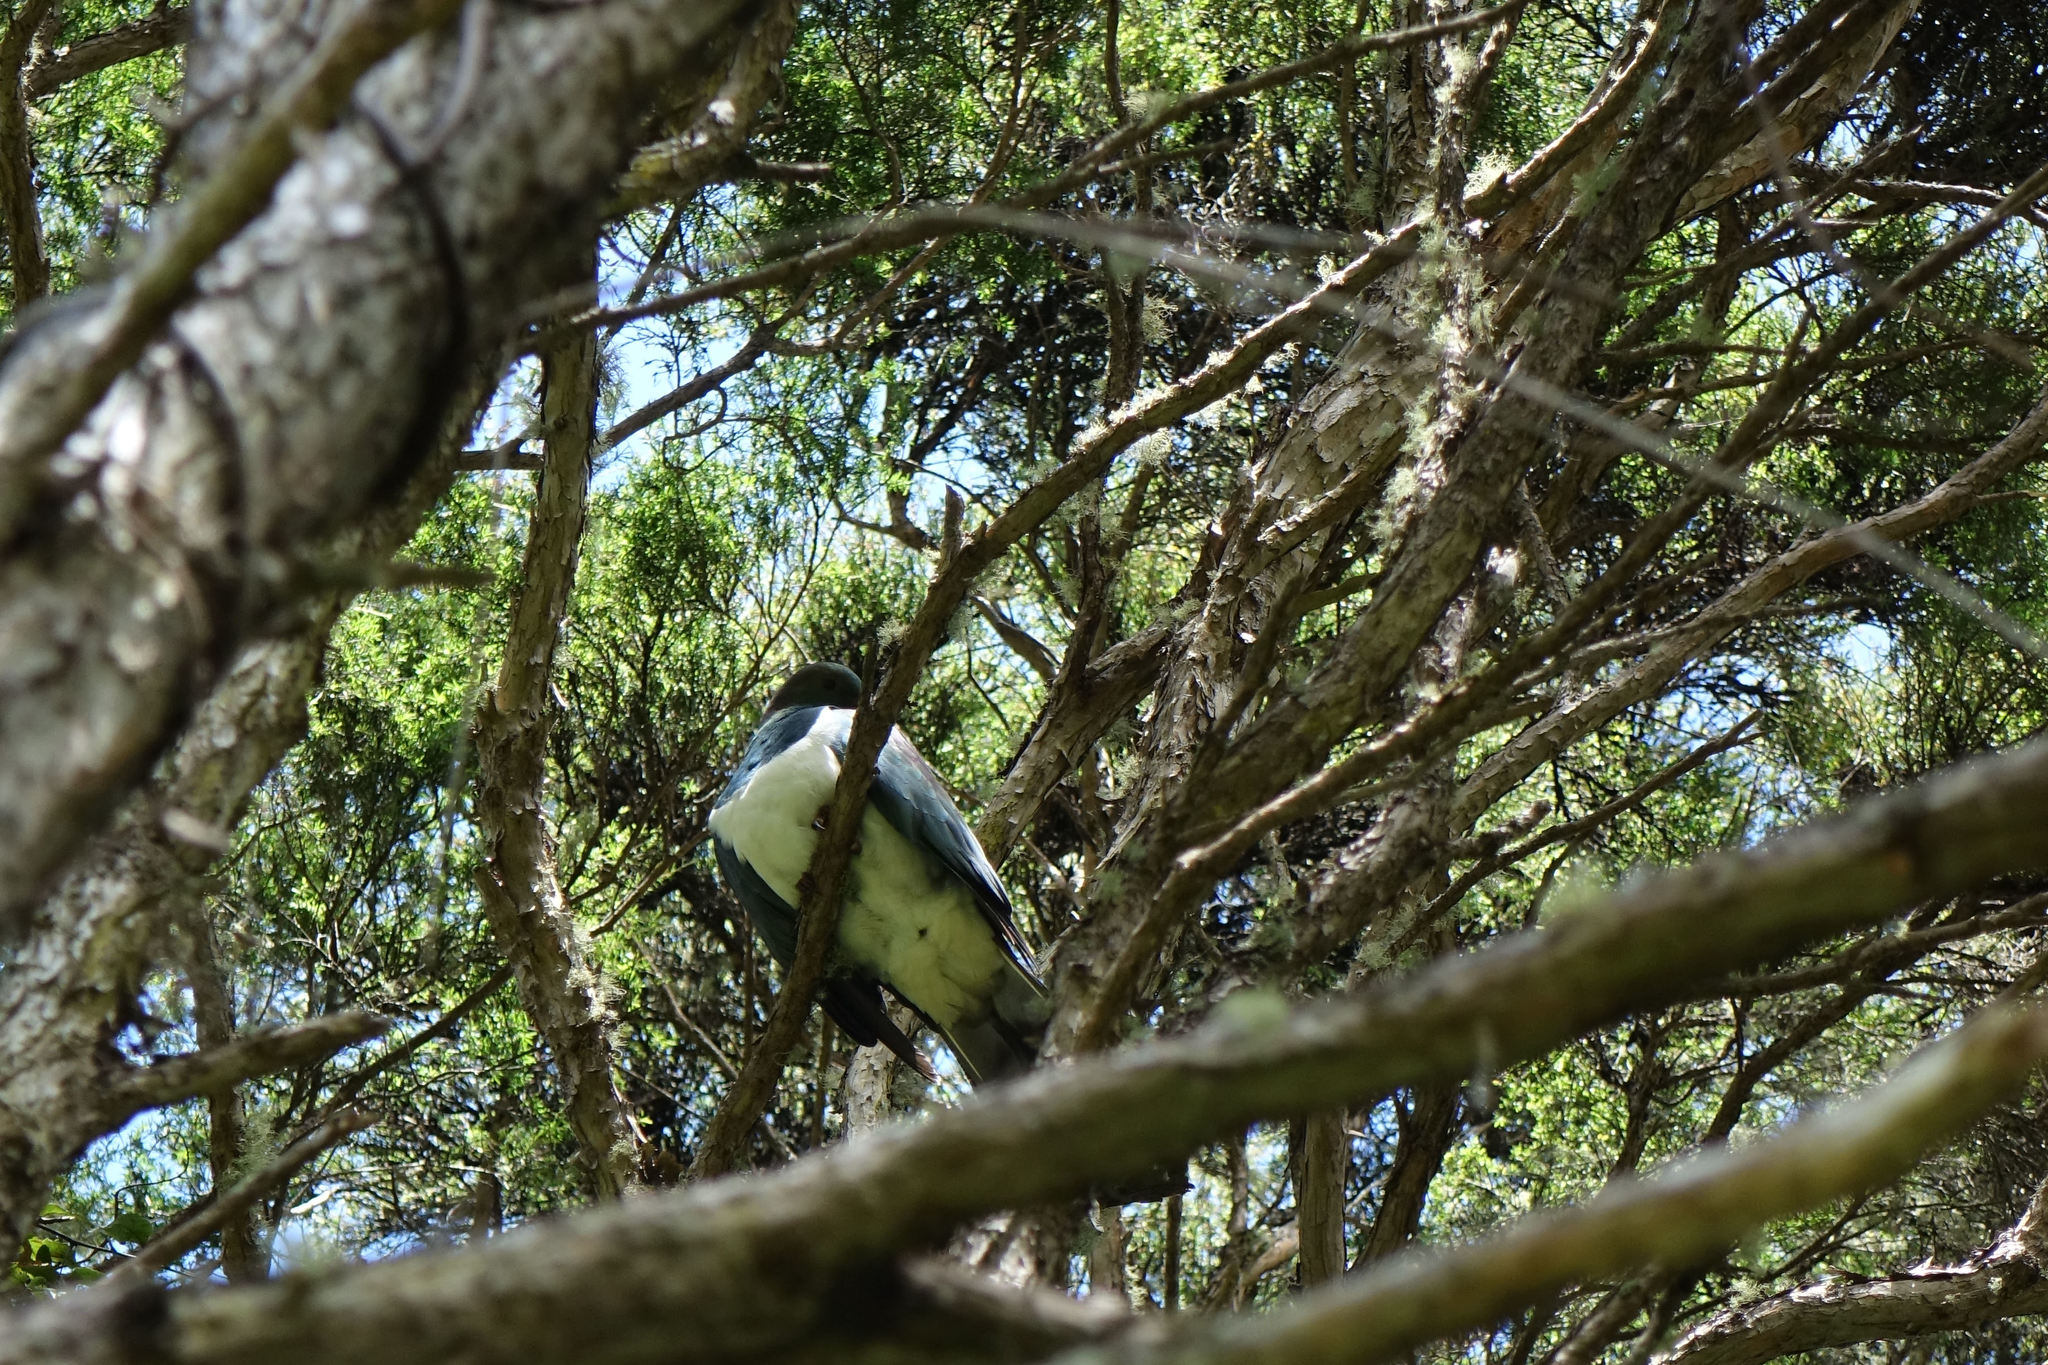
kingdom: Animalia
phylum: Chordata
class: Aves
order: Columbiformes
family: Columbidae
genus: Hemiphaga
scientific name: Hemiphaga novaeseelandiae
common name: New zealand pigeon
